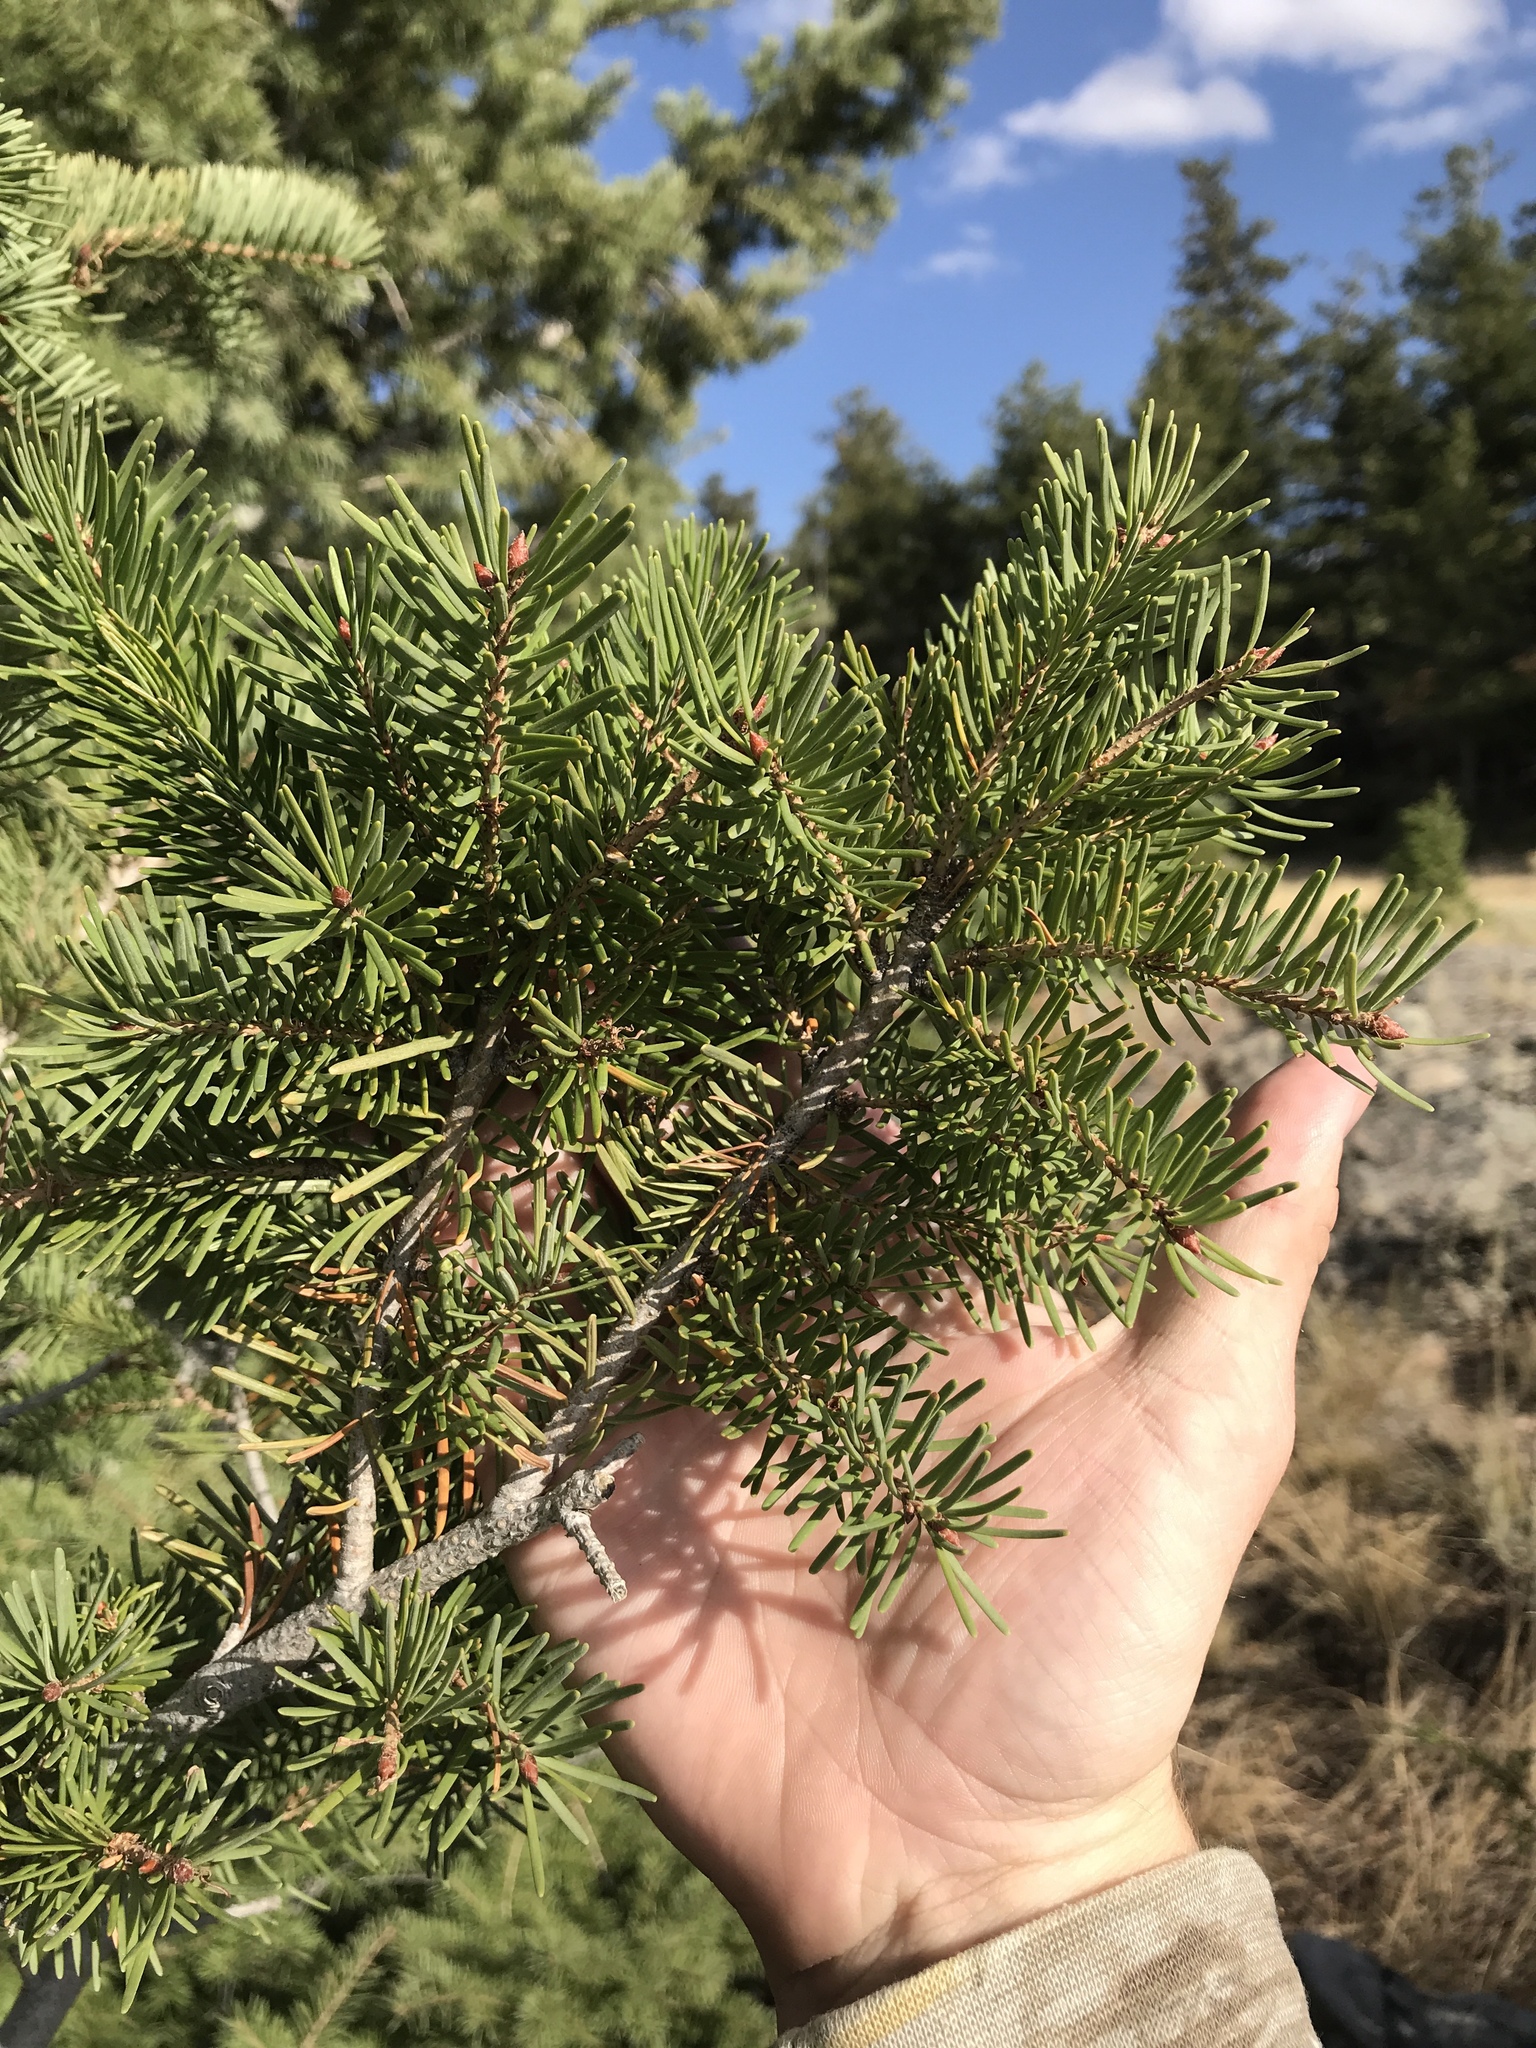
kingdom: Plantae
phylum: Tracheophyta
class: Pinopsida
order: Pinales
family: Pinaceae
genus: Pseudotsuga
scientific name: Pseudotsuga menziesii
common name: Douglas fir
